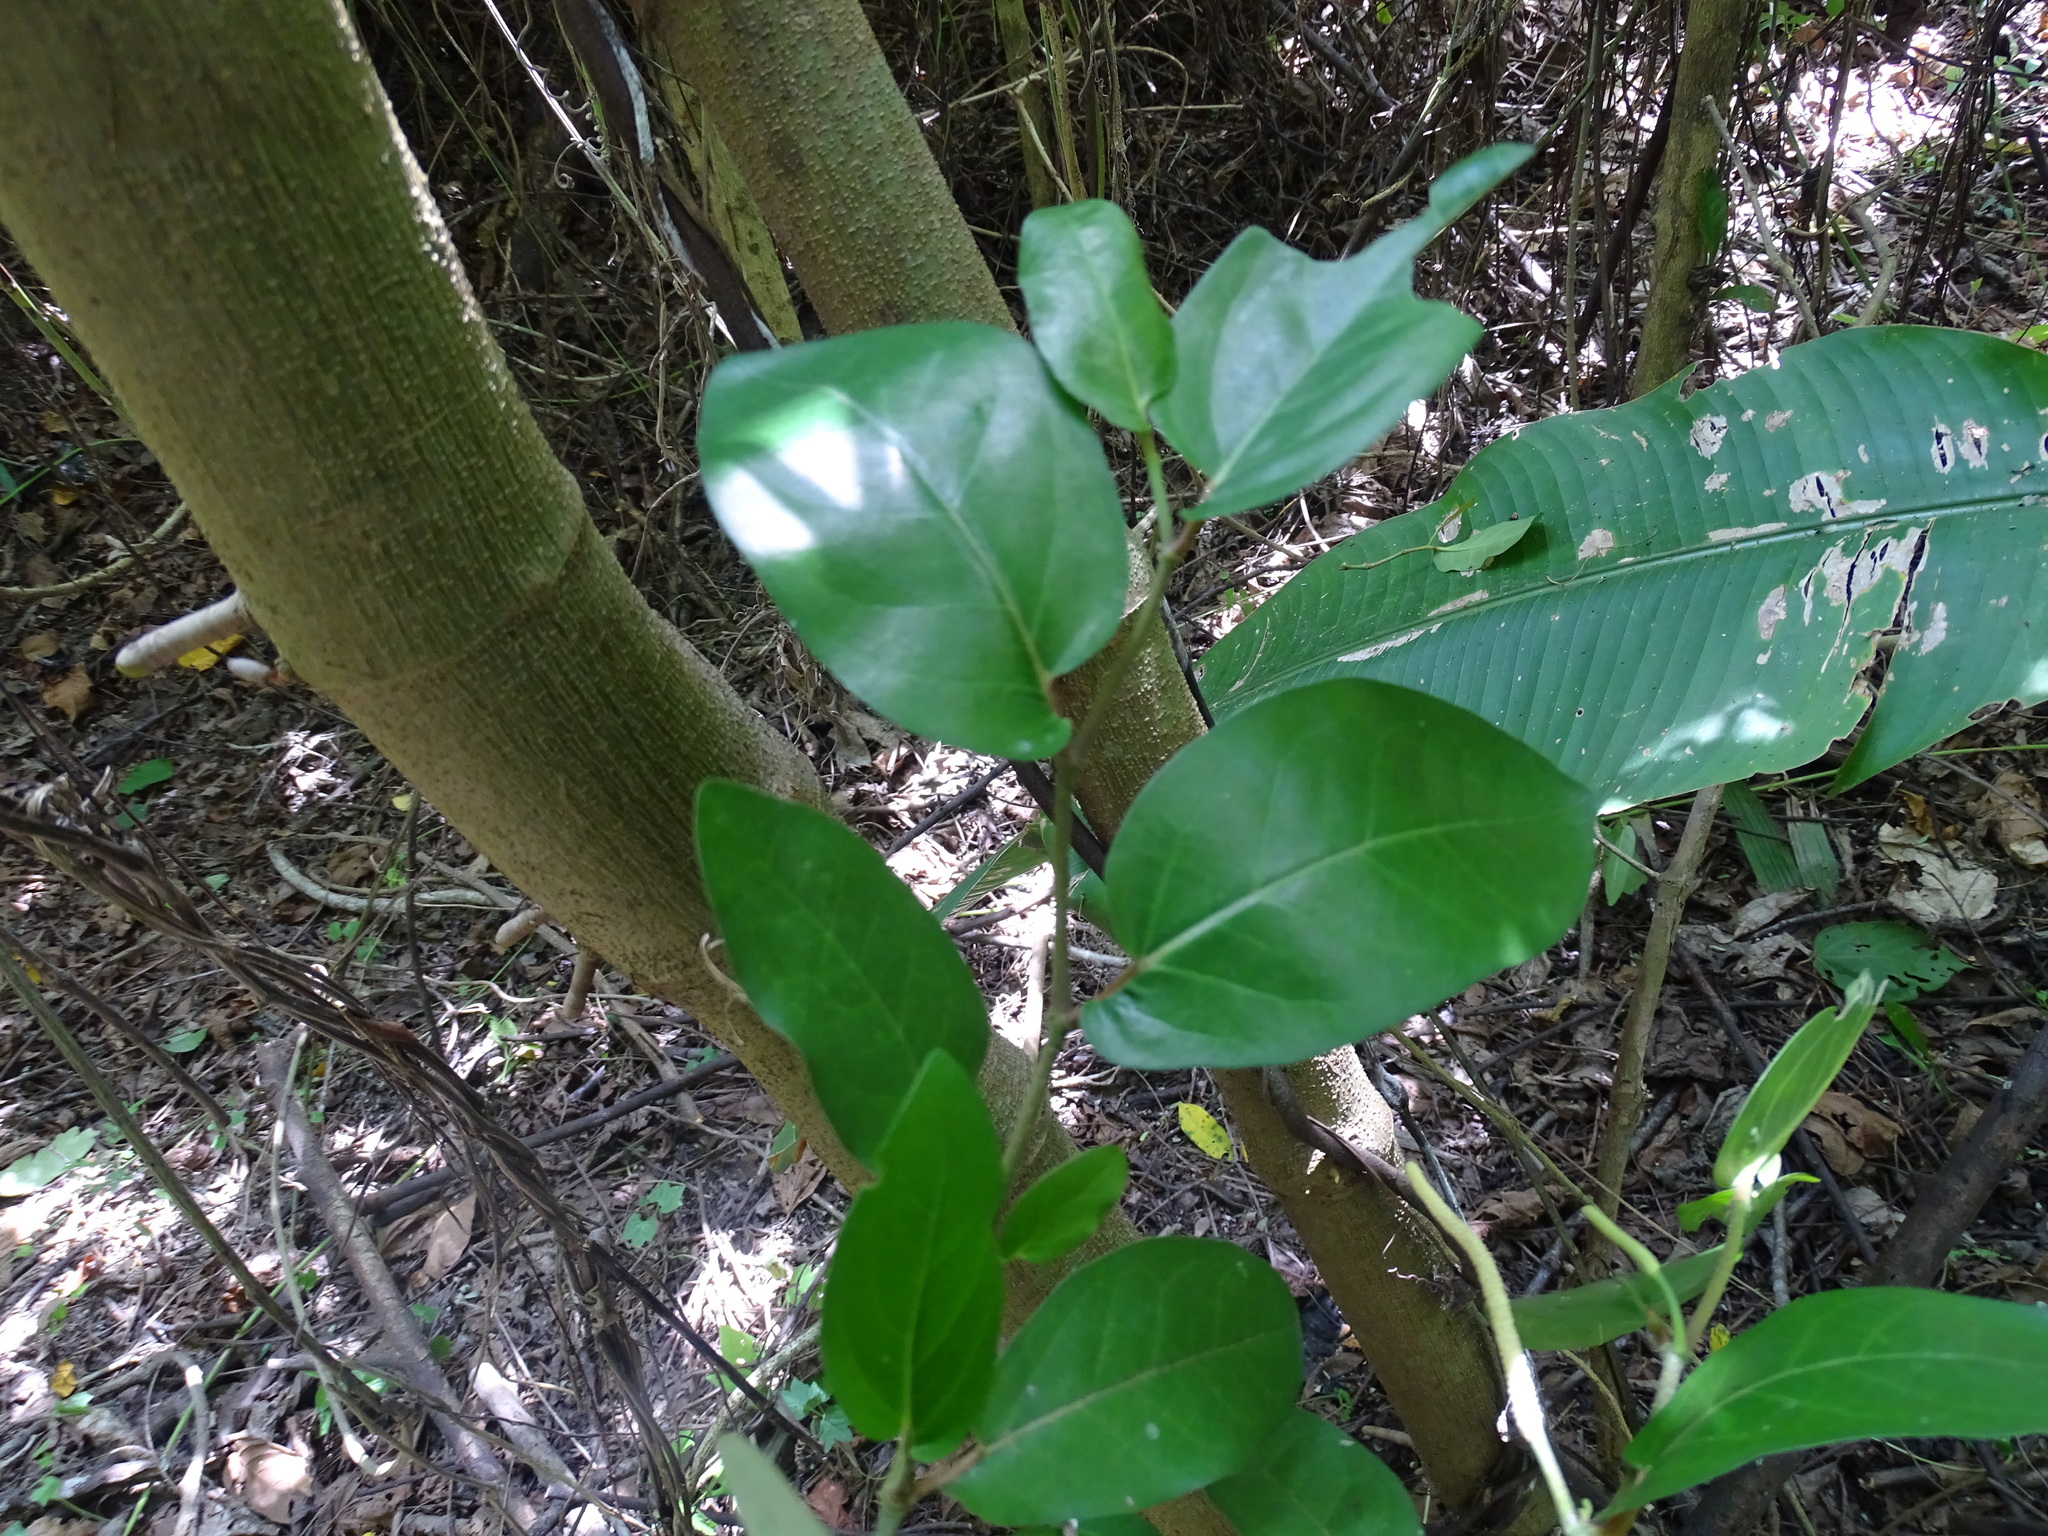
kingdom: Plantae
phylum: Tracheophyta
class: Magnoliopsida
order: Piperales
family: Piperaceae
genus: Piper
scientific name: Piper tuberculatum
